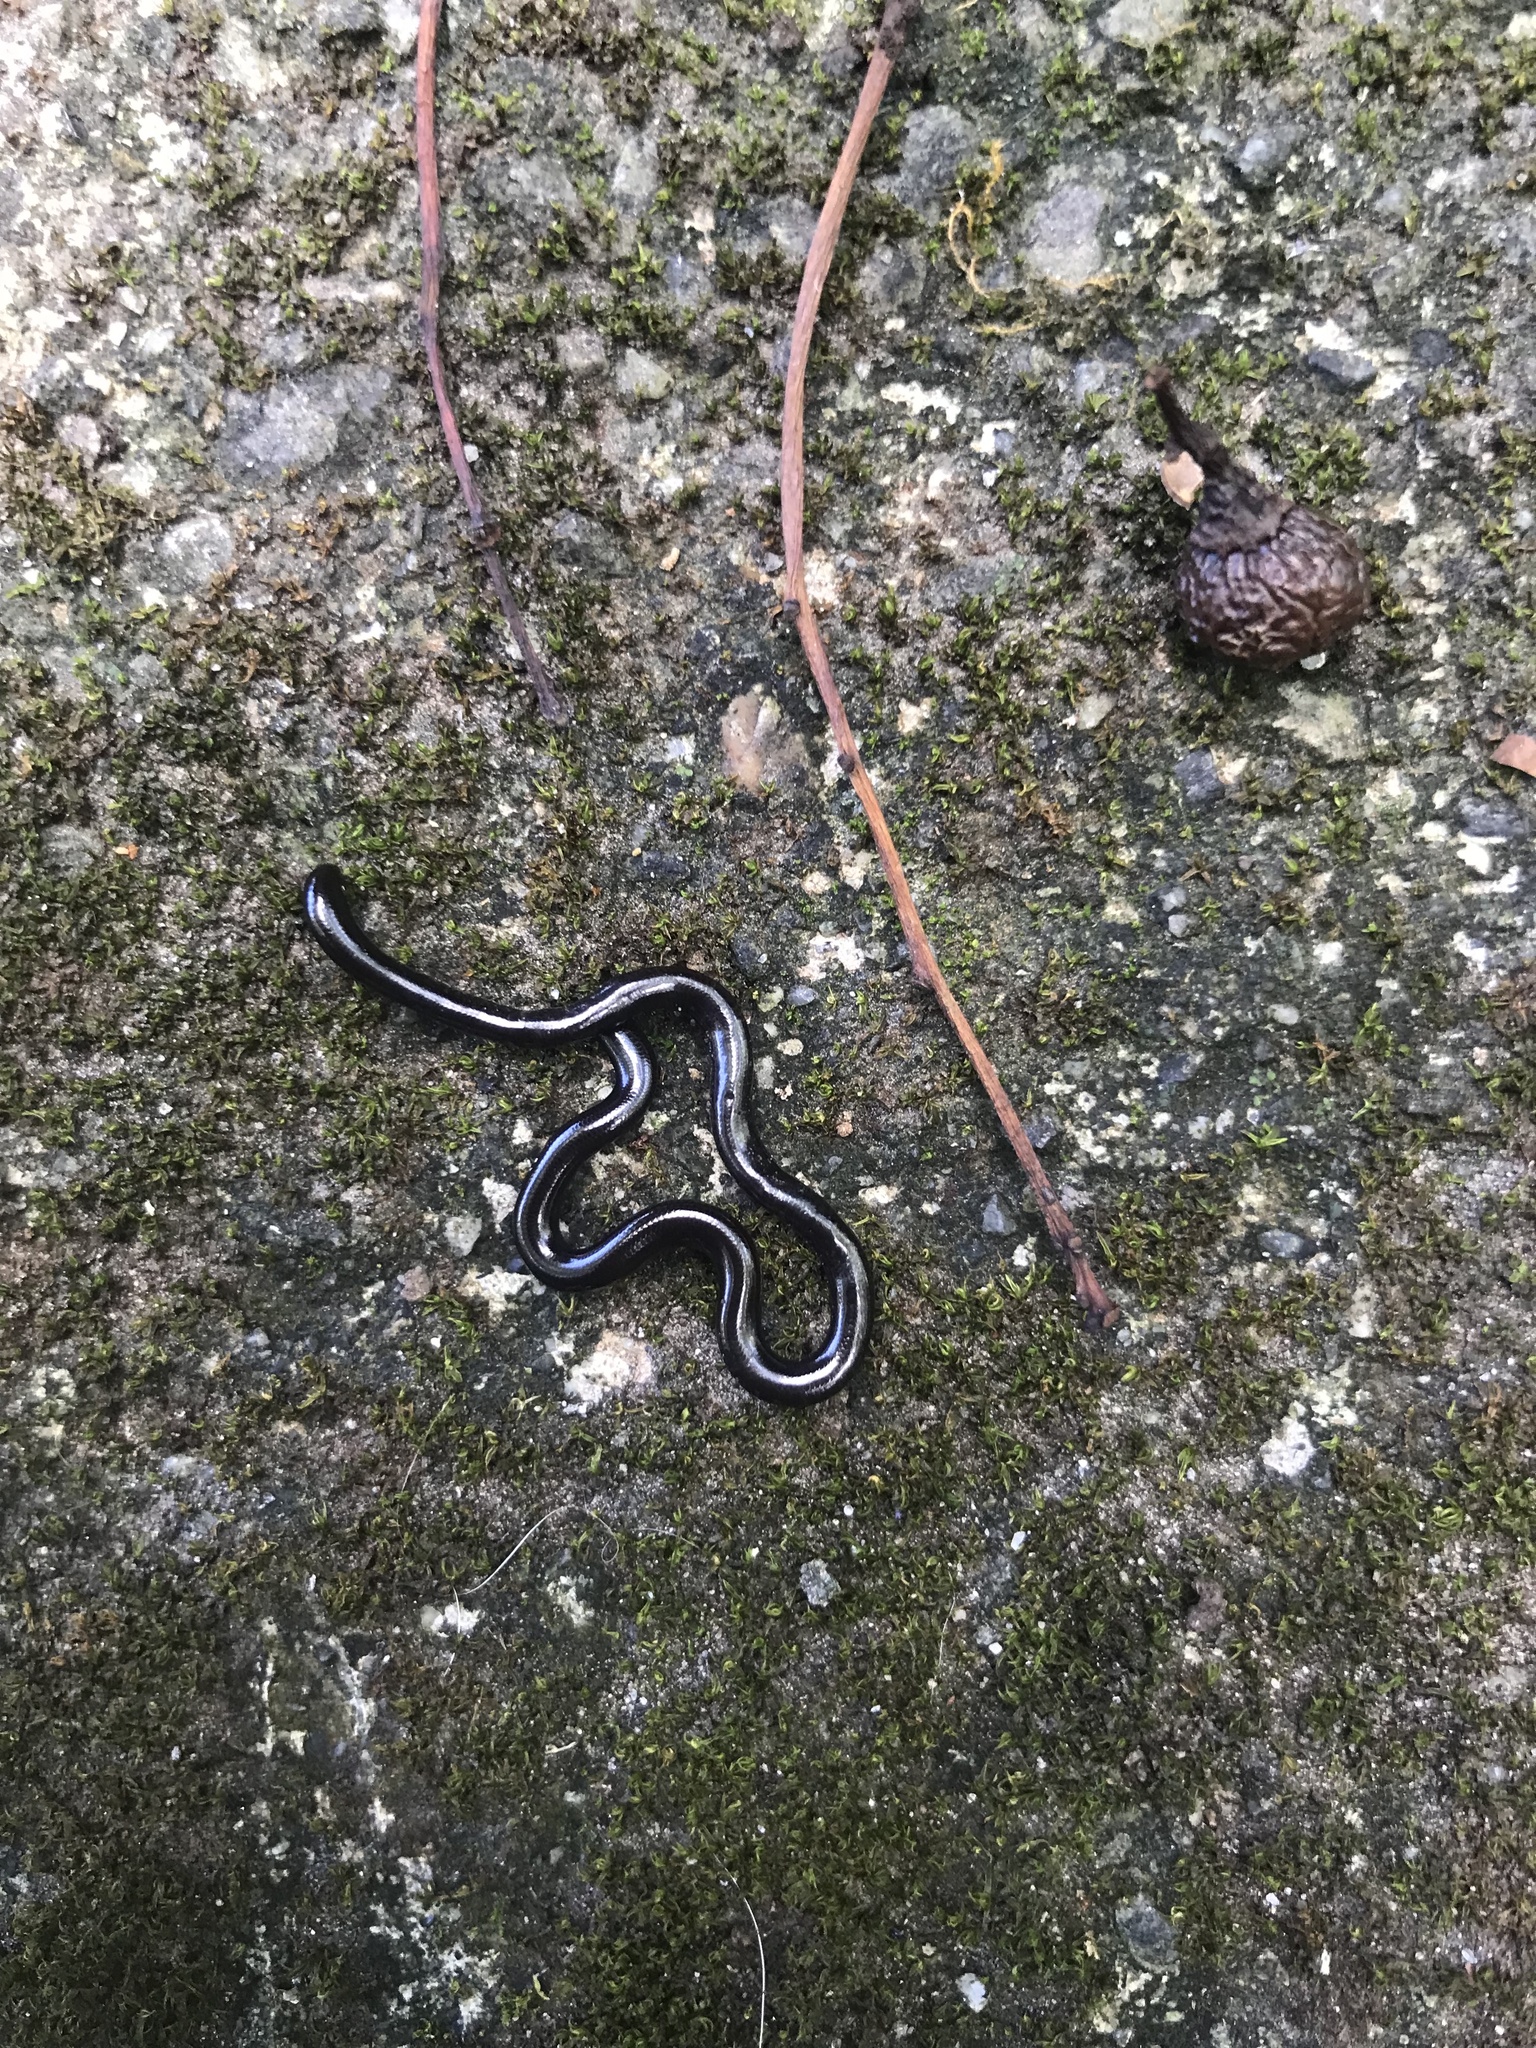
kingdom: Animalia
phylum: Chordata
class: Squamata
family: Typhlopidae
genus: Indotyphlops
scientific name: Indotyphlops braminus
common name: Brahminy blindsnake
